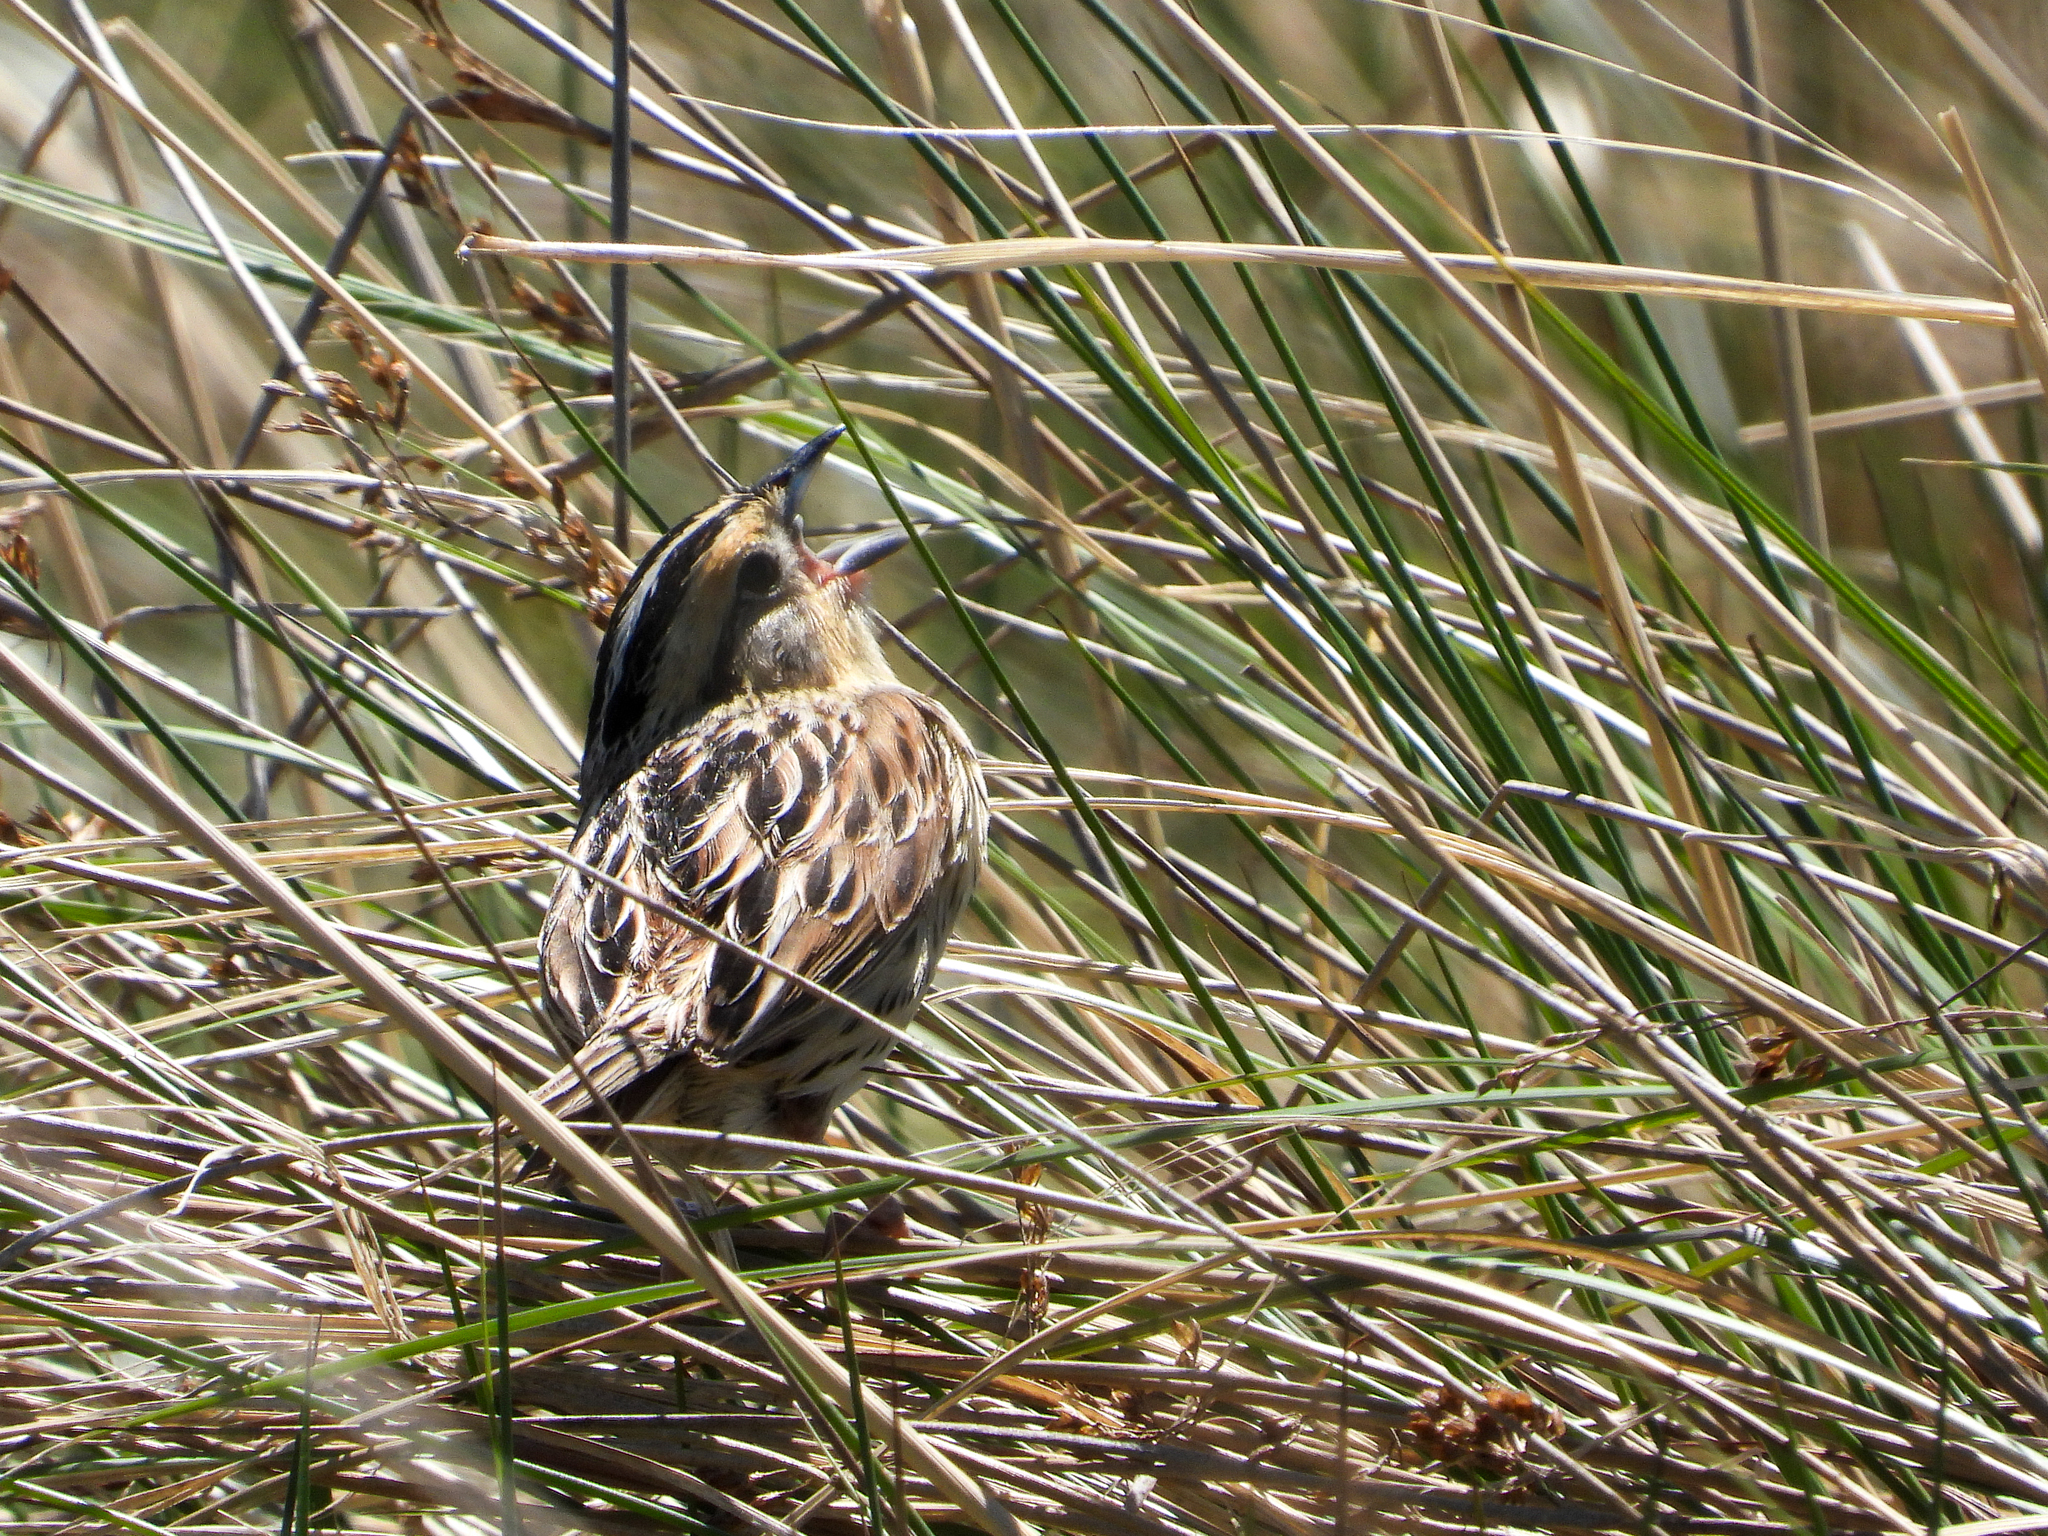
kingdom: Animalia
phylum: Chordata
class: Aves
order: Passeriformes
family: Passerellidae
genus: Ammospiza
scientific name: Ammospiza leconteii
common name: Le conte's sparrow
